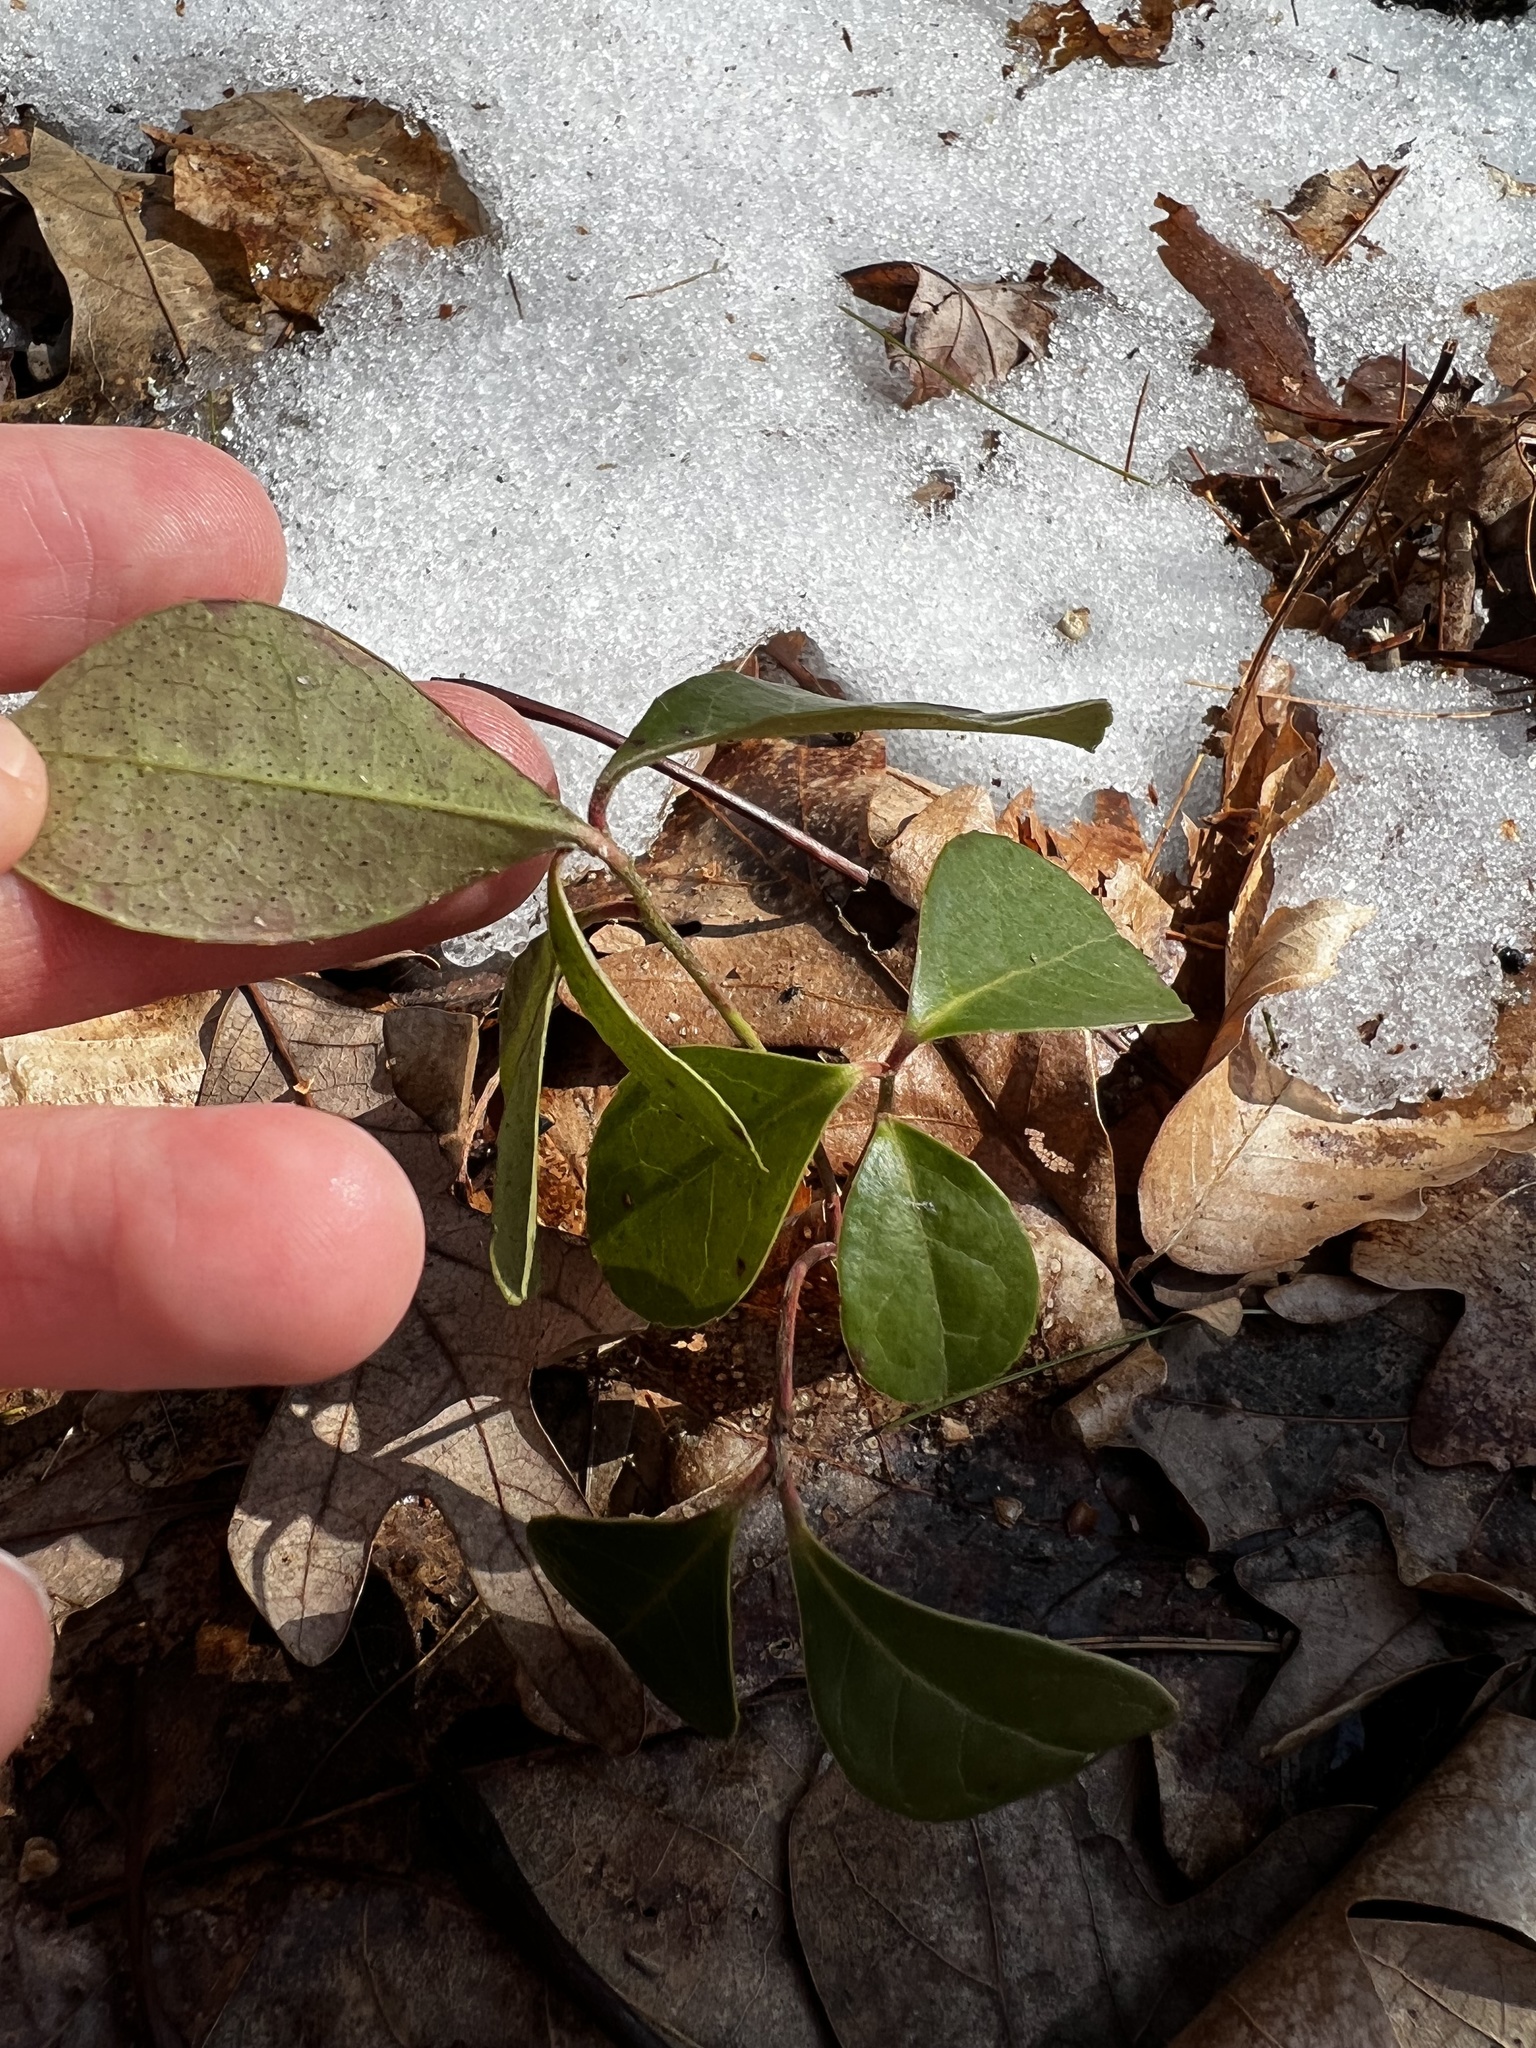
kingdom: Plantae
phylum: Tracheophyta
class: Magnoliopsida
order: Ericales
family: Ericaceae
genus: Gaultheria
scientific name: Gaultheria procumbens
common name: Checkerberry
